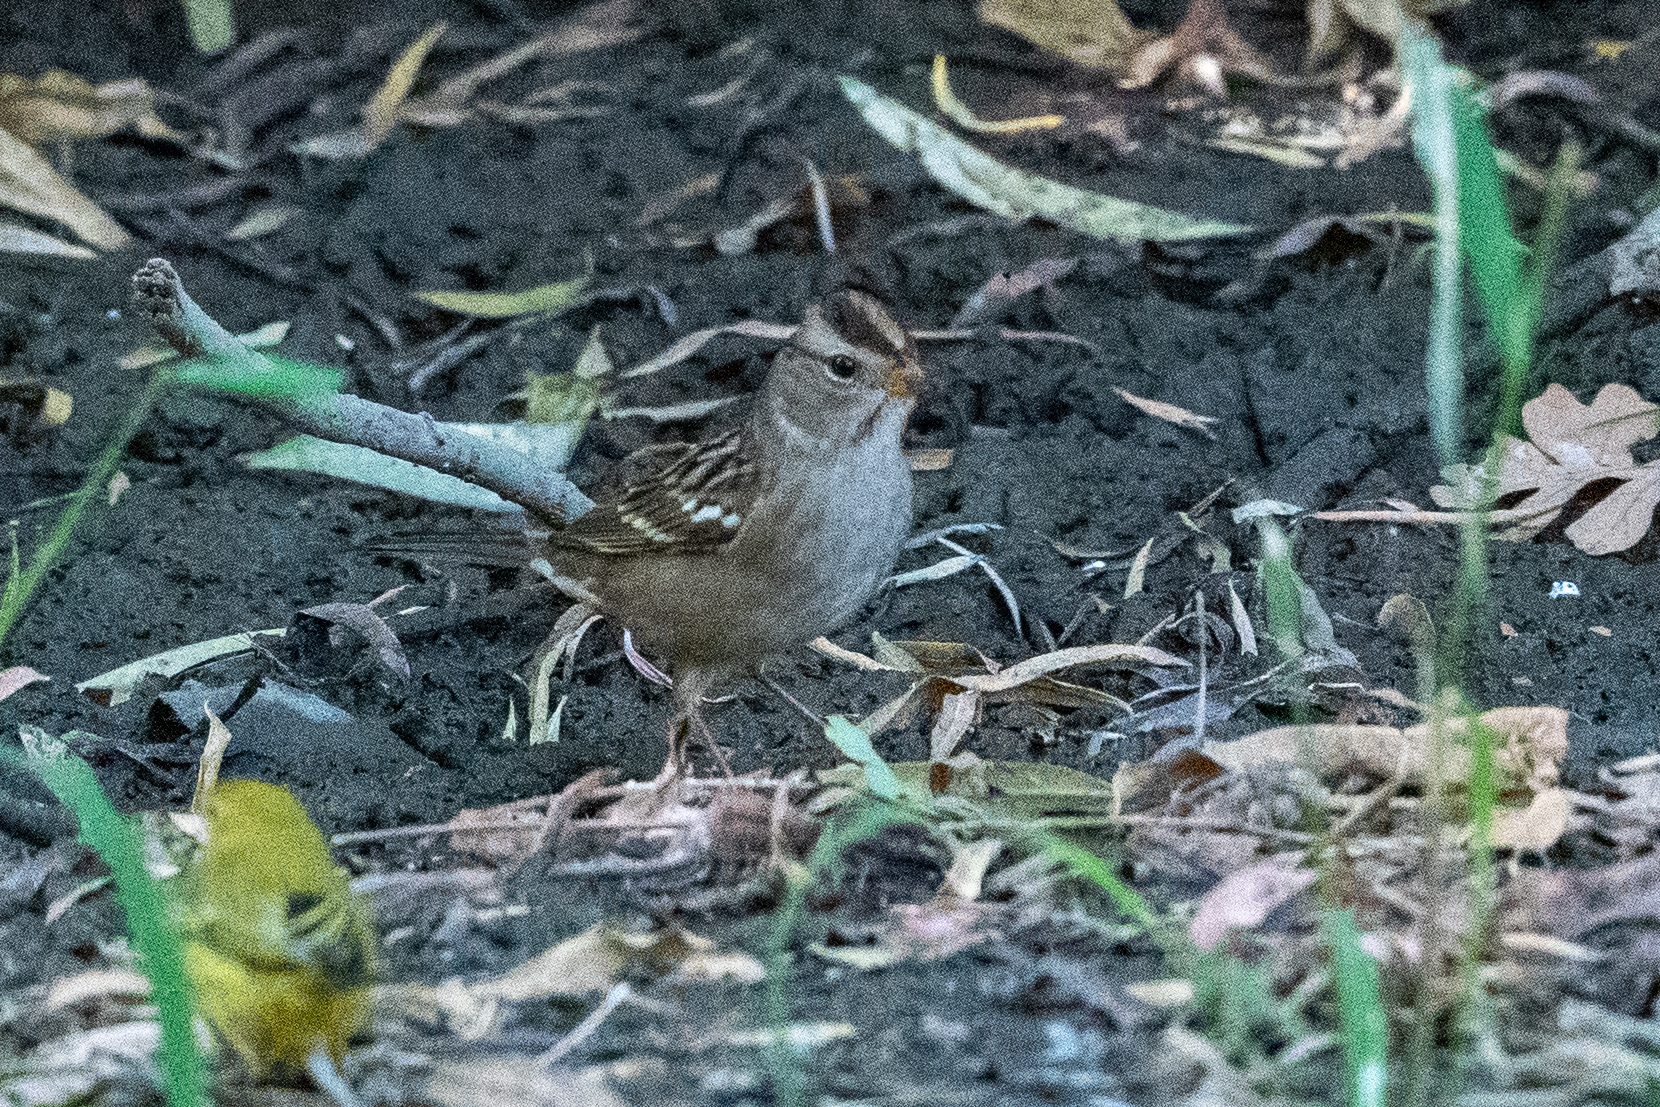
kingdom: Animalia
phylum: Chordata
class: Aves
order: Passeriformes
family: Passerellidae
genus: Zonotrichia
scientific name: Zonotrichia leucophrys
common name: White-crowned sparrow
